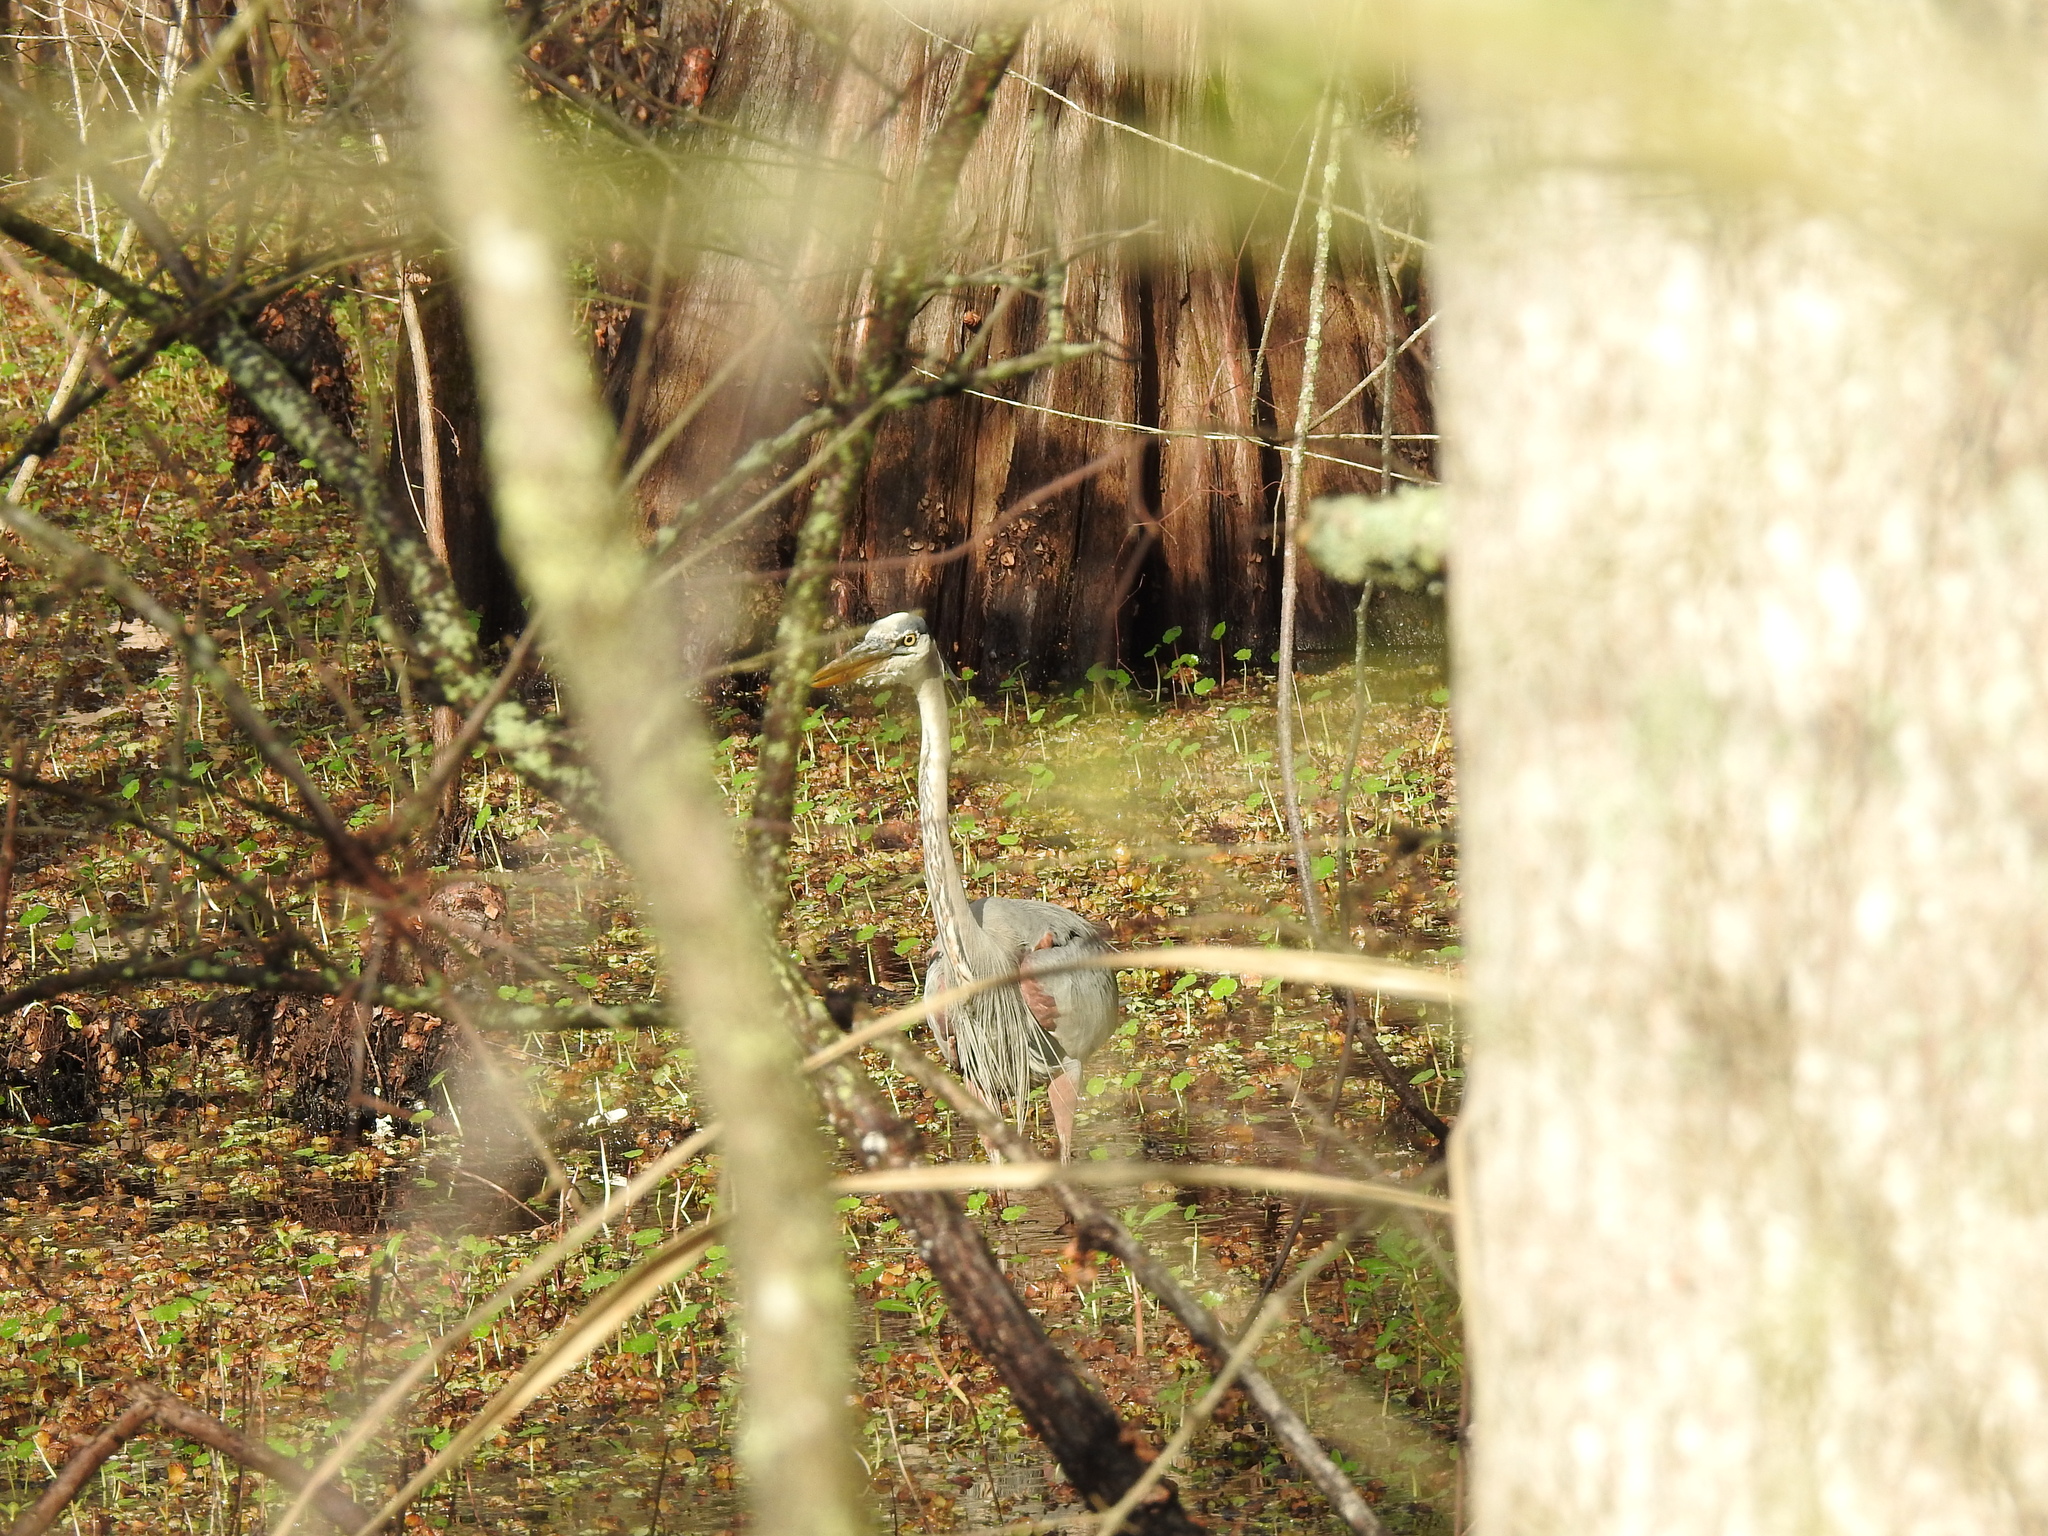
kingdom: Animalia
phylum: Chordata
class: Aves
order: Pelecaniformes
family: Ardeidae
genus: Ardea
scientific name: Ardea herodias
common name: Great blue heron
